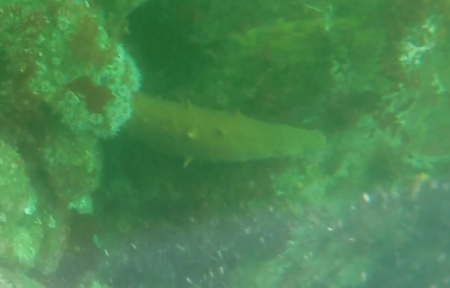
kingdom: Animalia
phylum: Echinodermata
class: Holothuroidea
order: Synallactida
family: Stichopodidae
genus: Apostichopus
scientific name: Apostichopus parvimensis
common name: Warty sea cucumber
